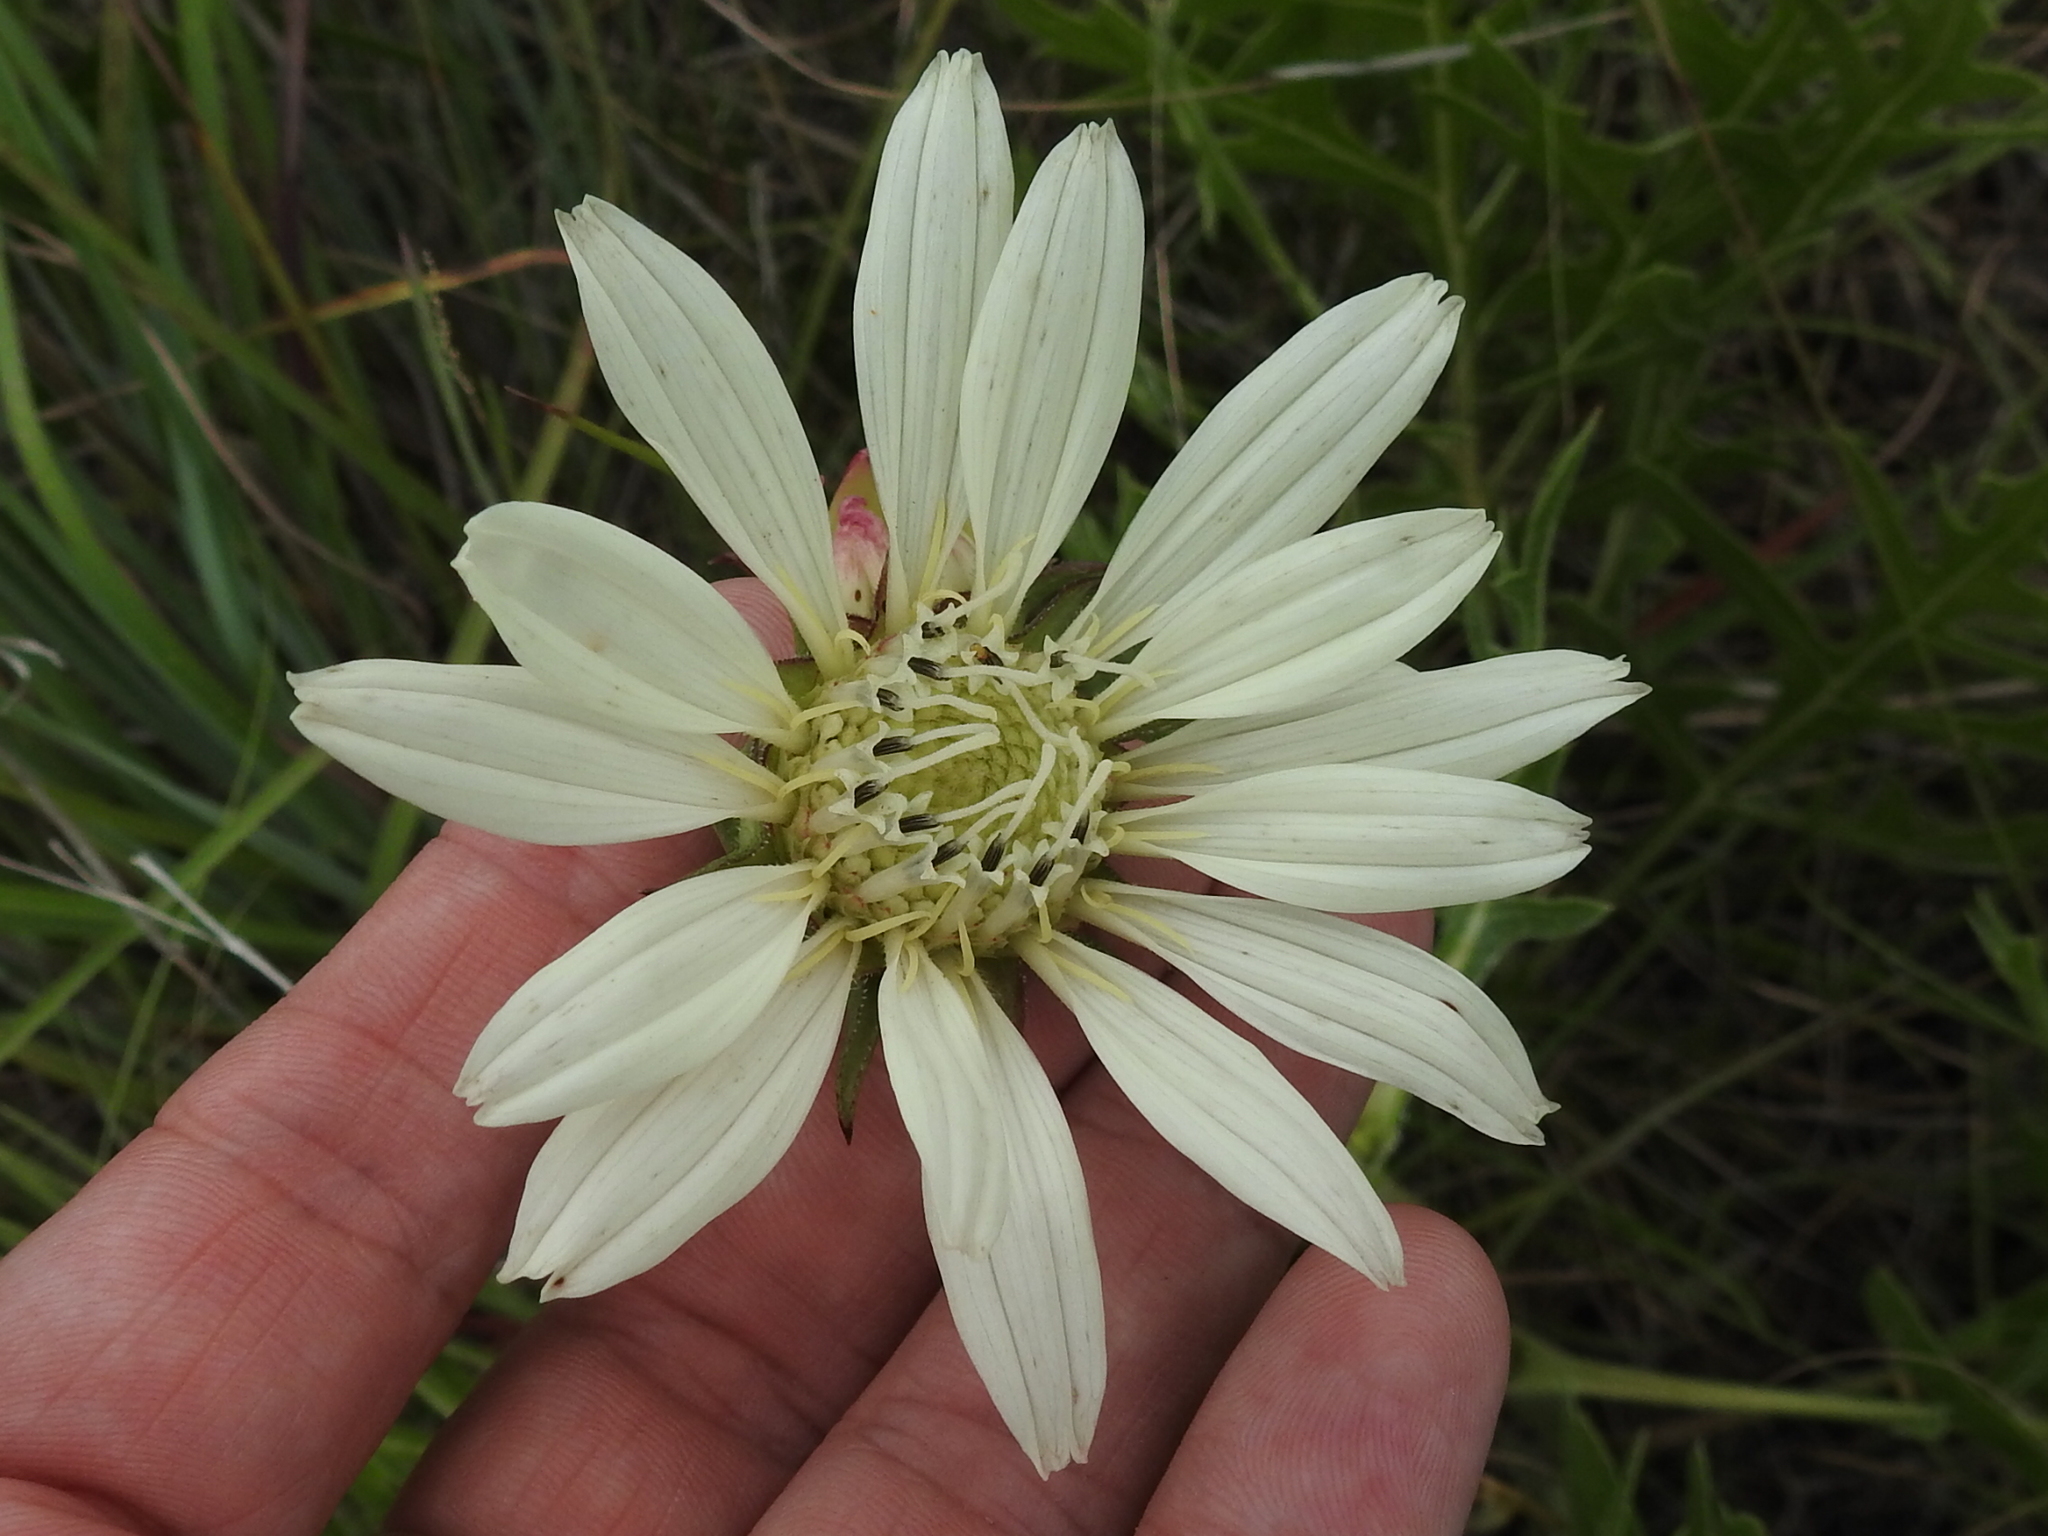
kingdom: Plantae
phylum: Tracheophyta
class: Magnoliopsida
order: Asterales
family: Asteraceae
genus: Silphium
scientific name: Silphium albiflorum
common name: White rosinweed
